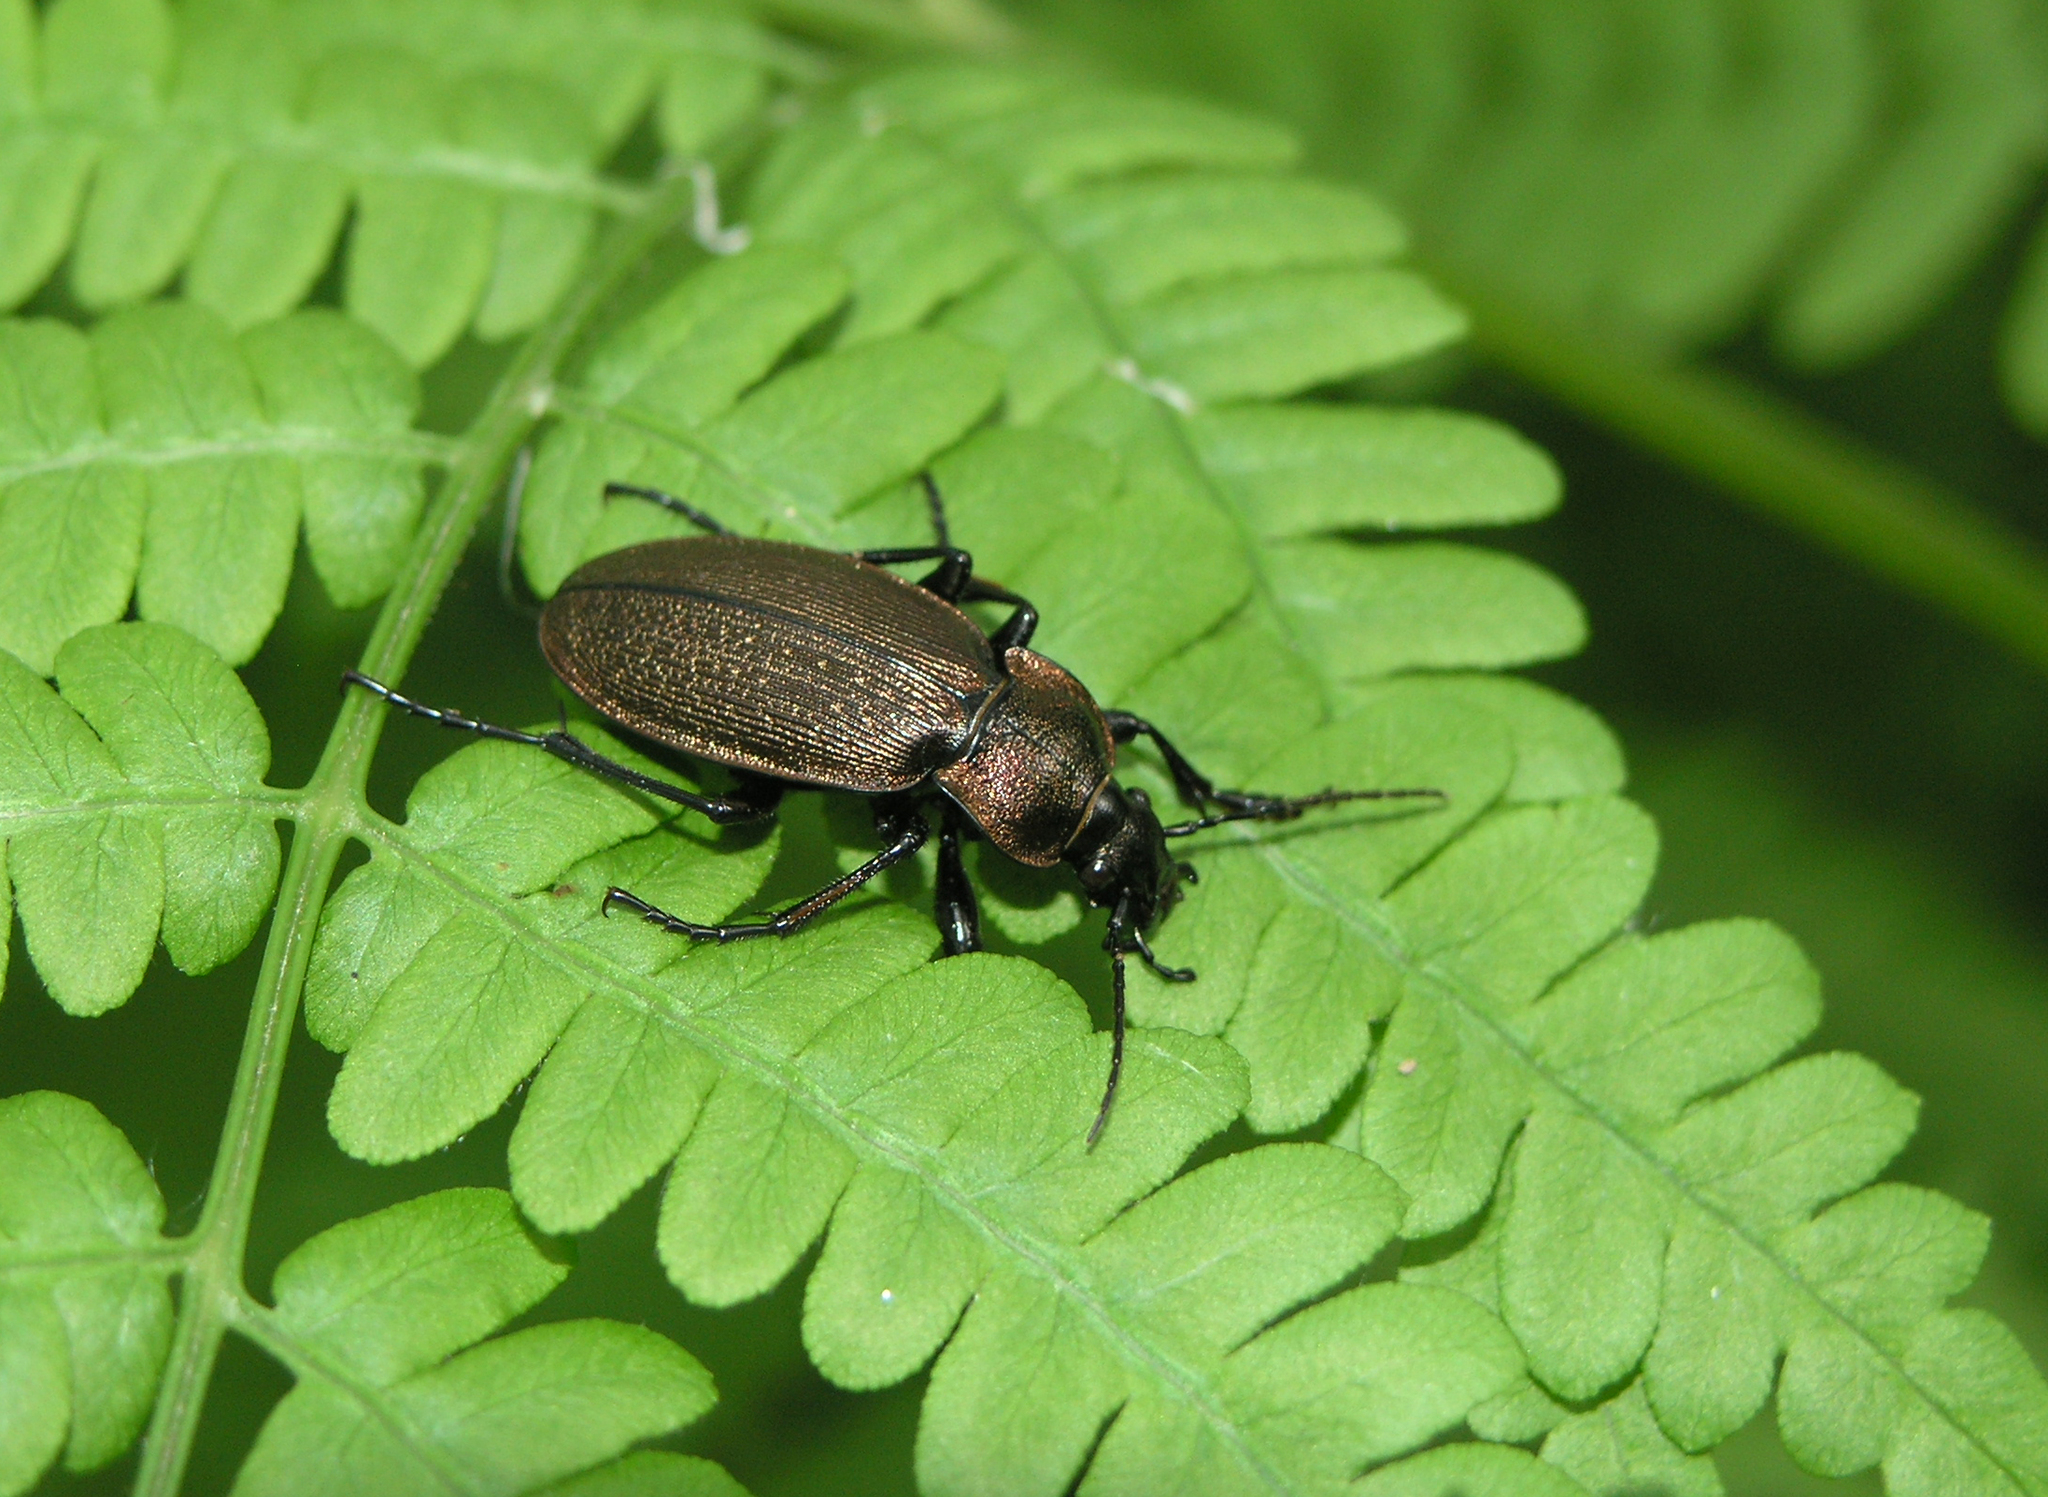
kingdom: Animalia
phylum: Arthropoda
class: Insecta
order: Coleoptera
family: Carabidae
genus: Carabus
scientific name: Carabus regalis
